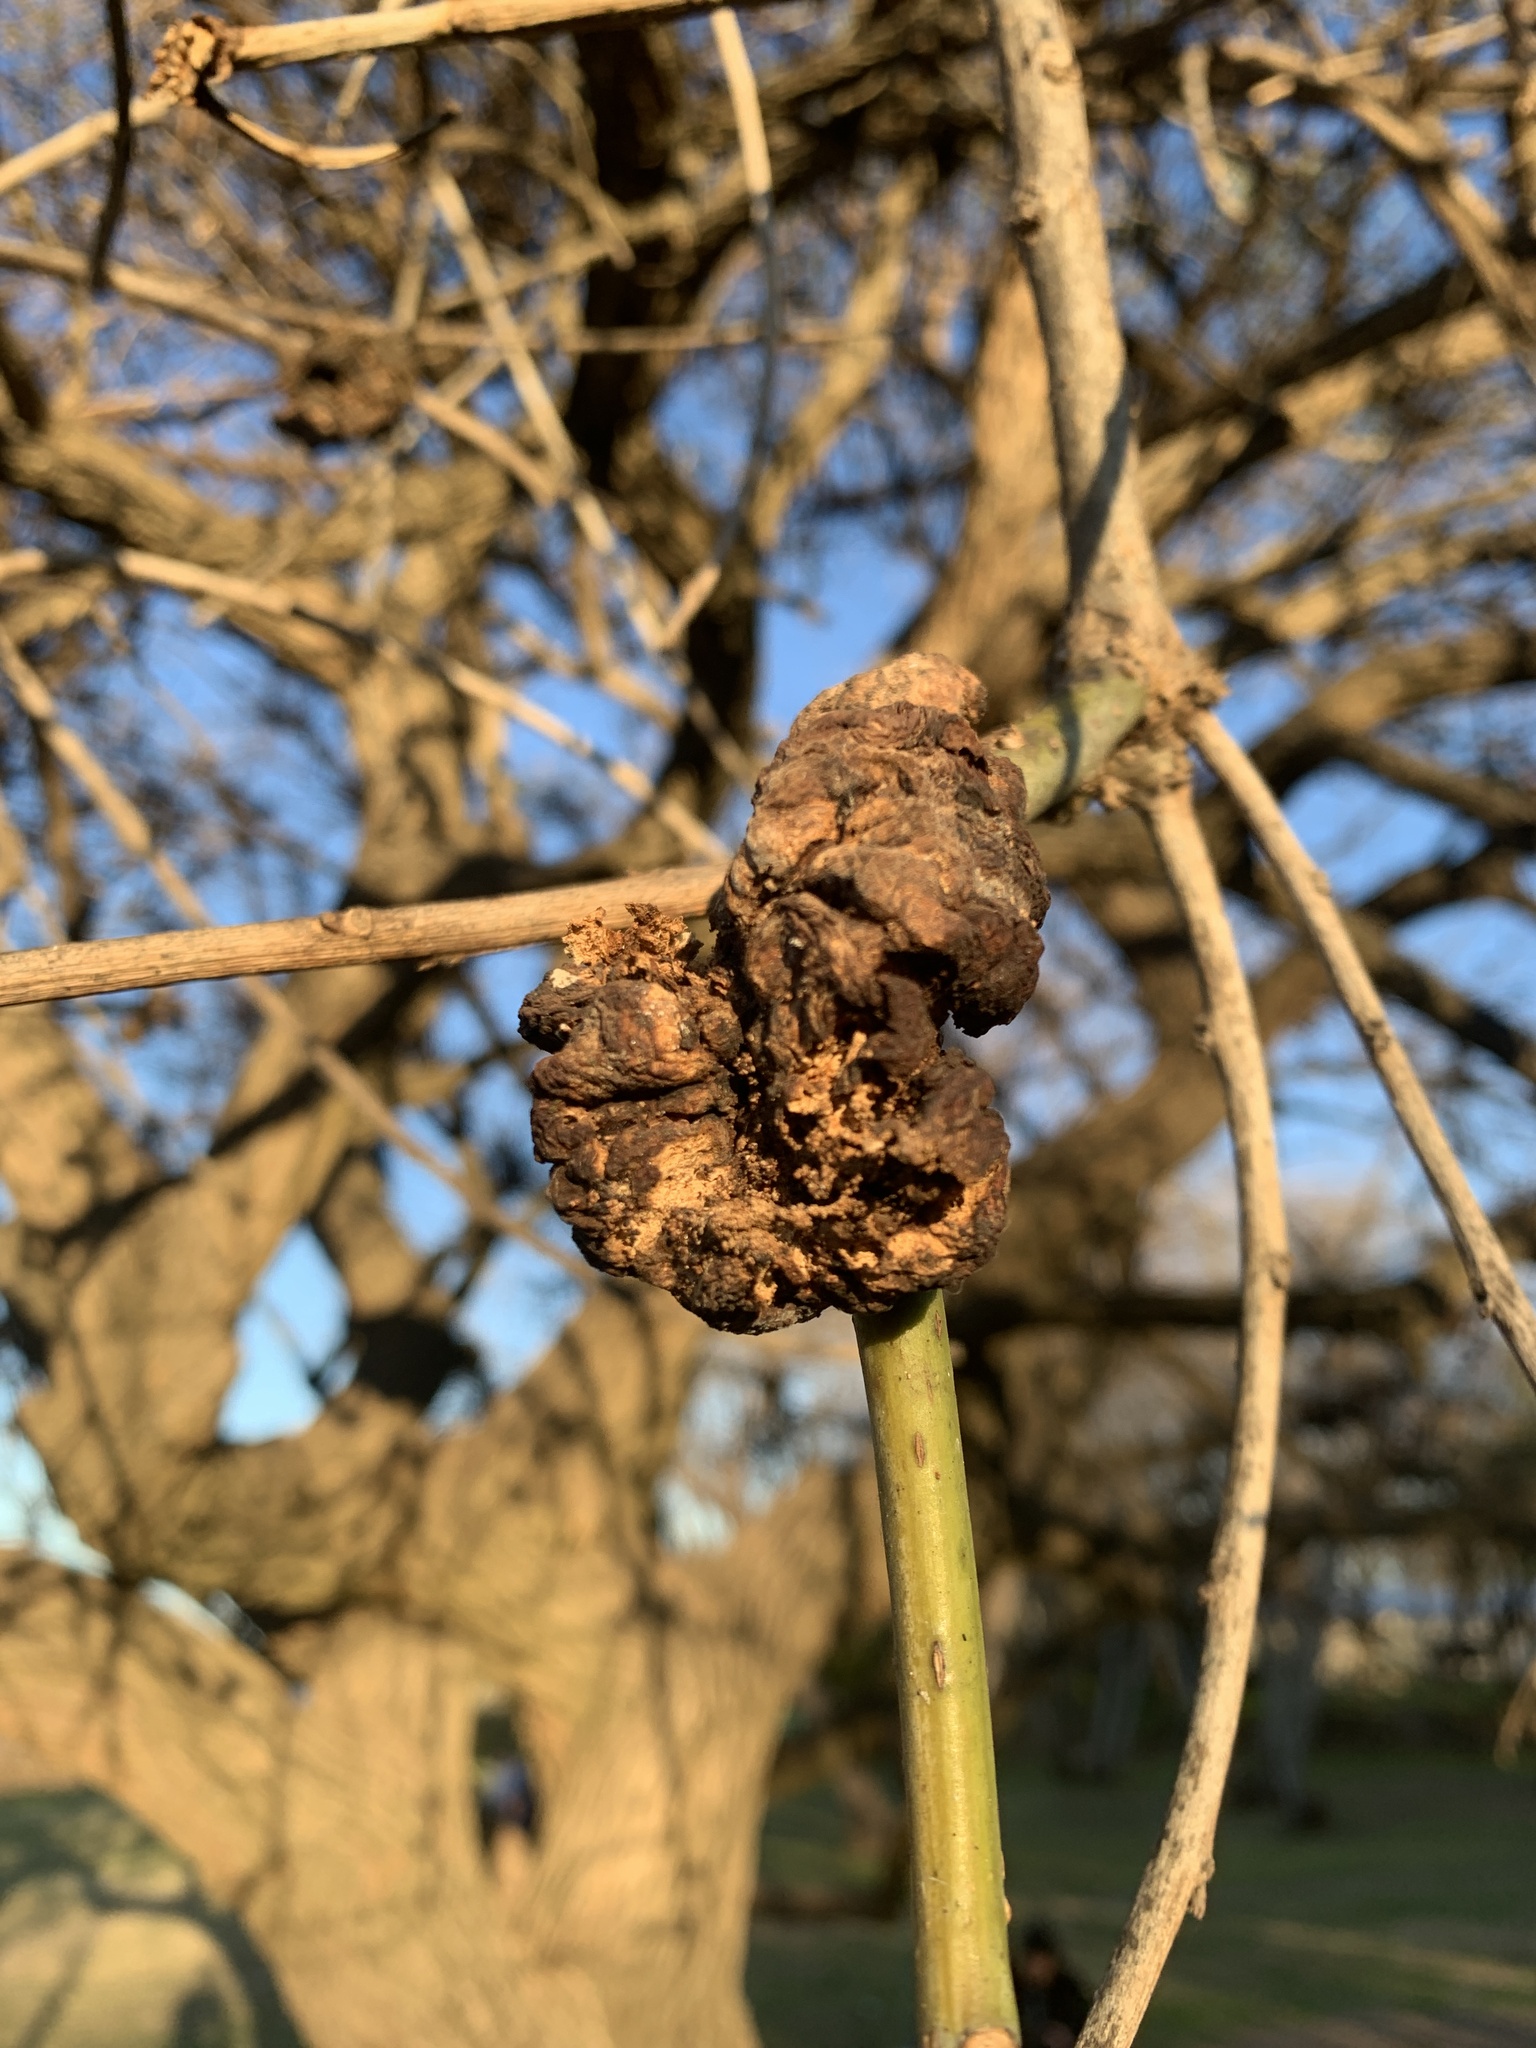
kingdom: Fungi
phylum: Basidiomycota
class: Pucciniomycetes
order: Pucciniales
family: Raveneliaceae
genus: Ravenelia
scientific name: Ravenelia platensis
